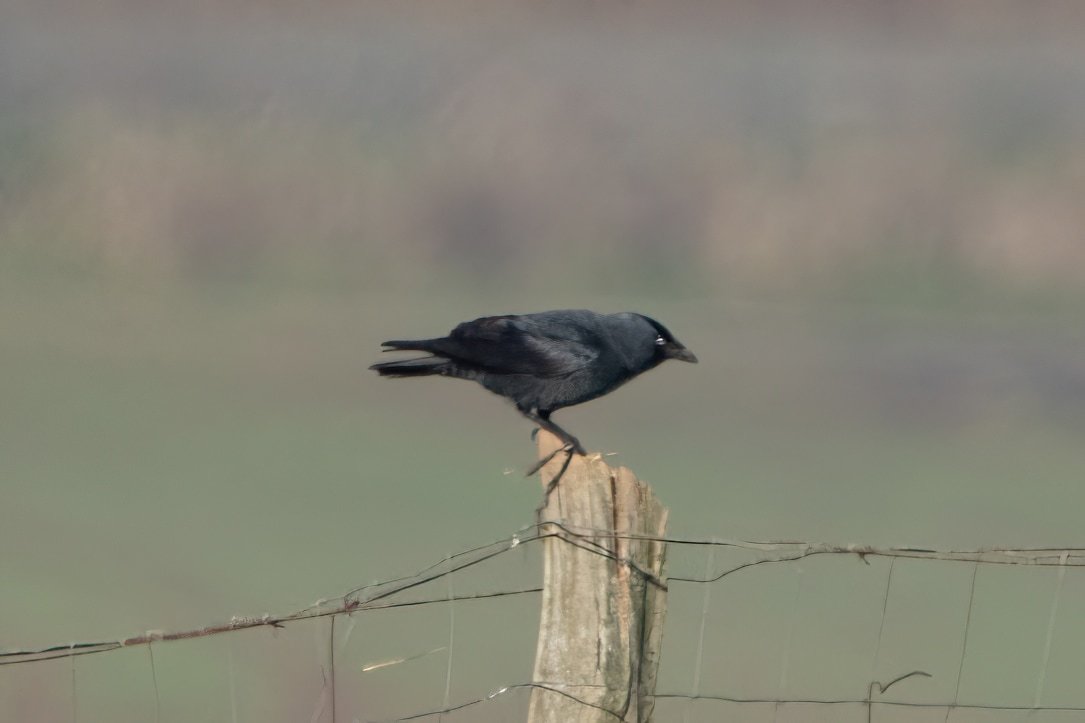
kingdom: Animalia
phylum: Chordata
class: Aves
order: Passeriformes
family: Corvidae
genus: Coloeus
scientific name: Coloeus monedula
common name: Western jackdaw
